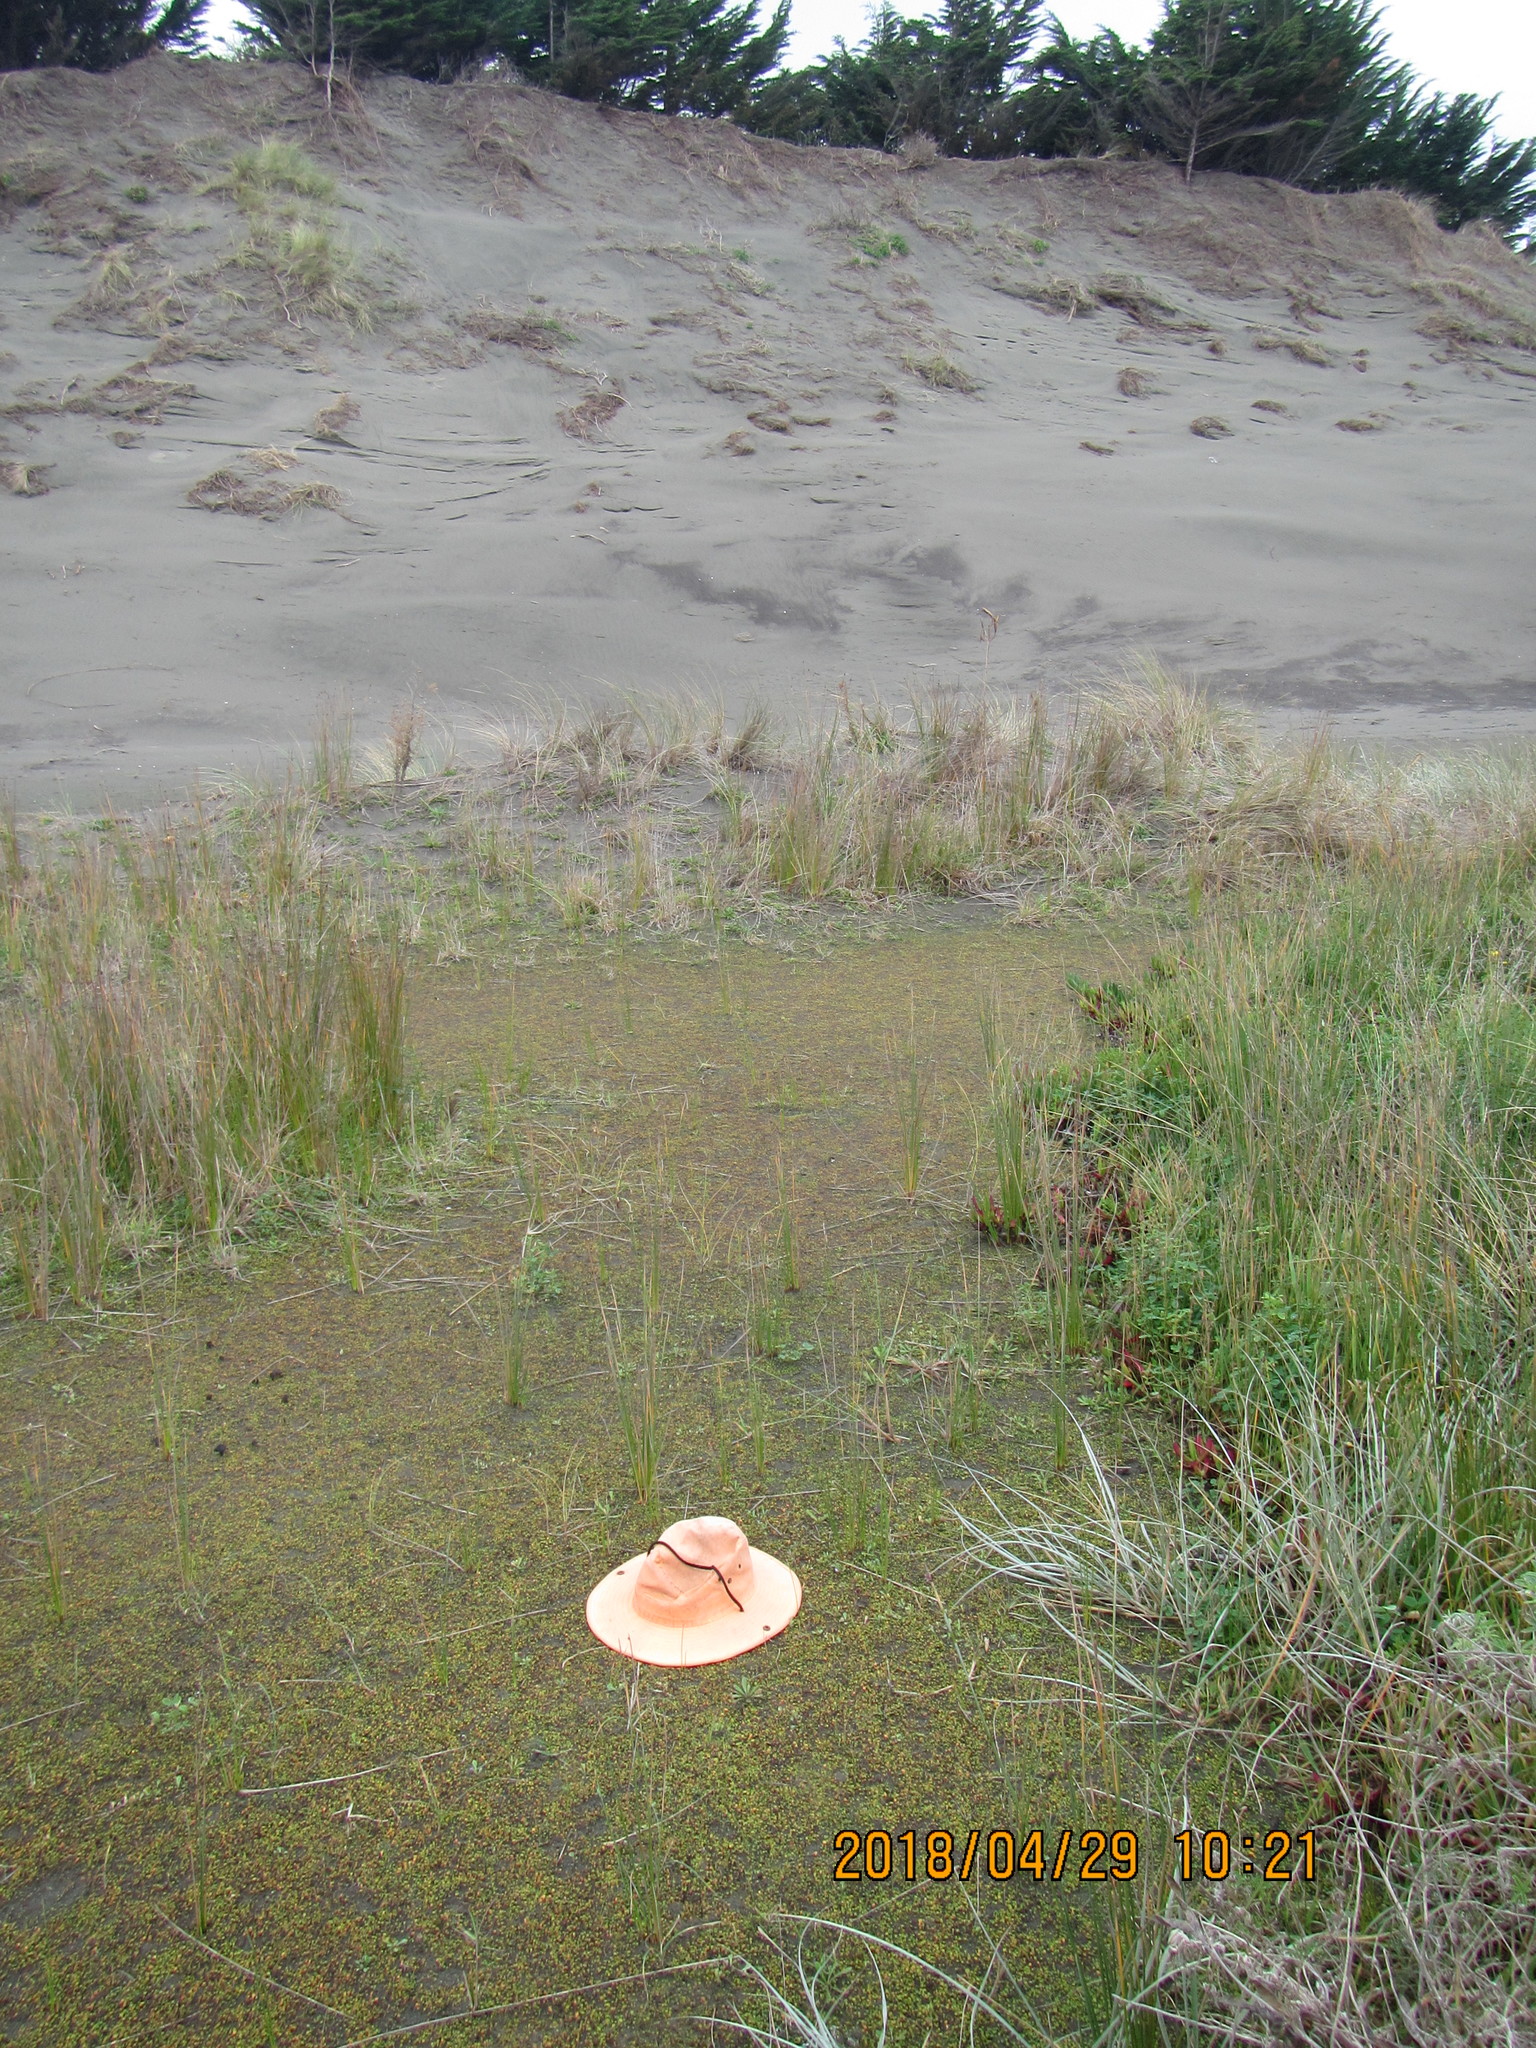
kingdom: Plantae
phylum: Tracheophyta
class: Magnoliopsida
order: Asterales
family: Campanulaceae
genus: Lobelia
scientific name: Lobelia anceps
